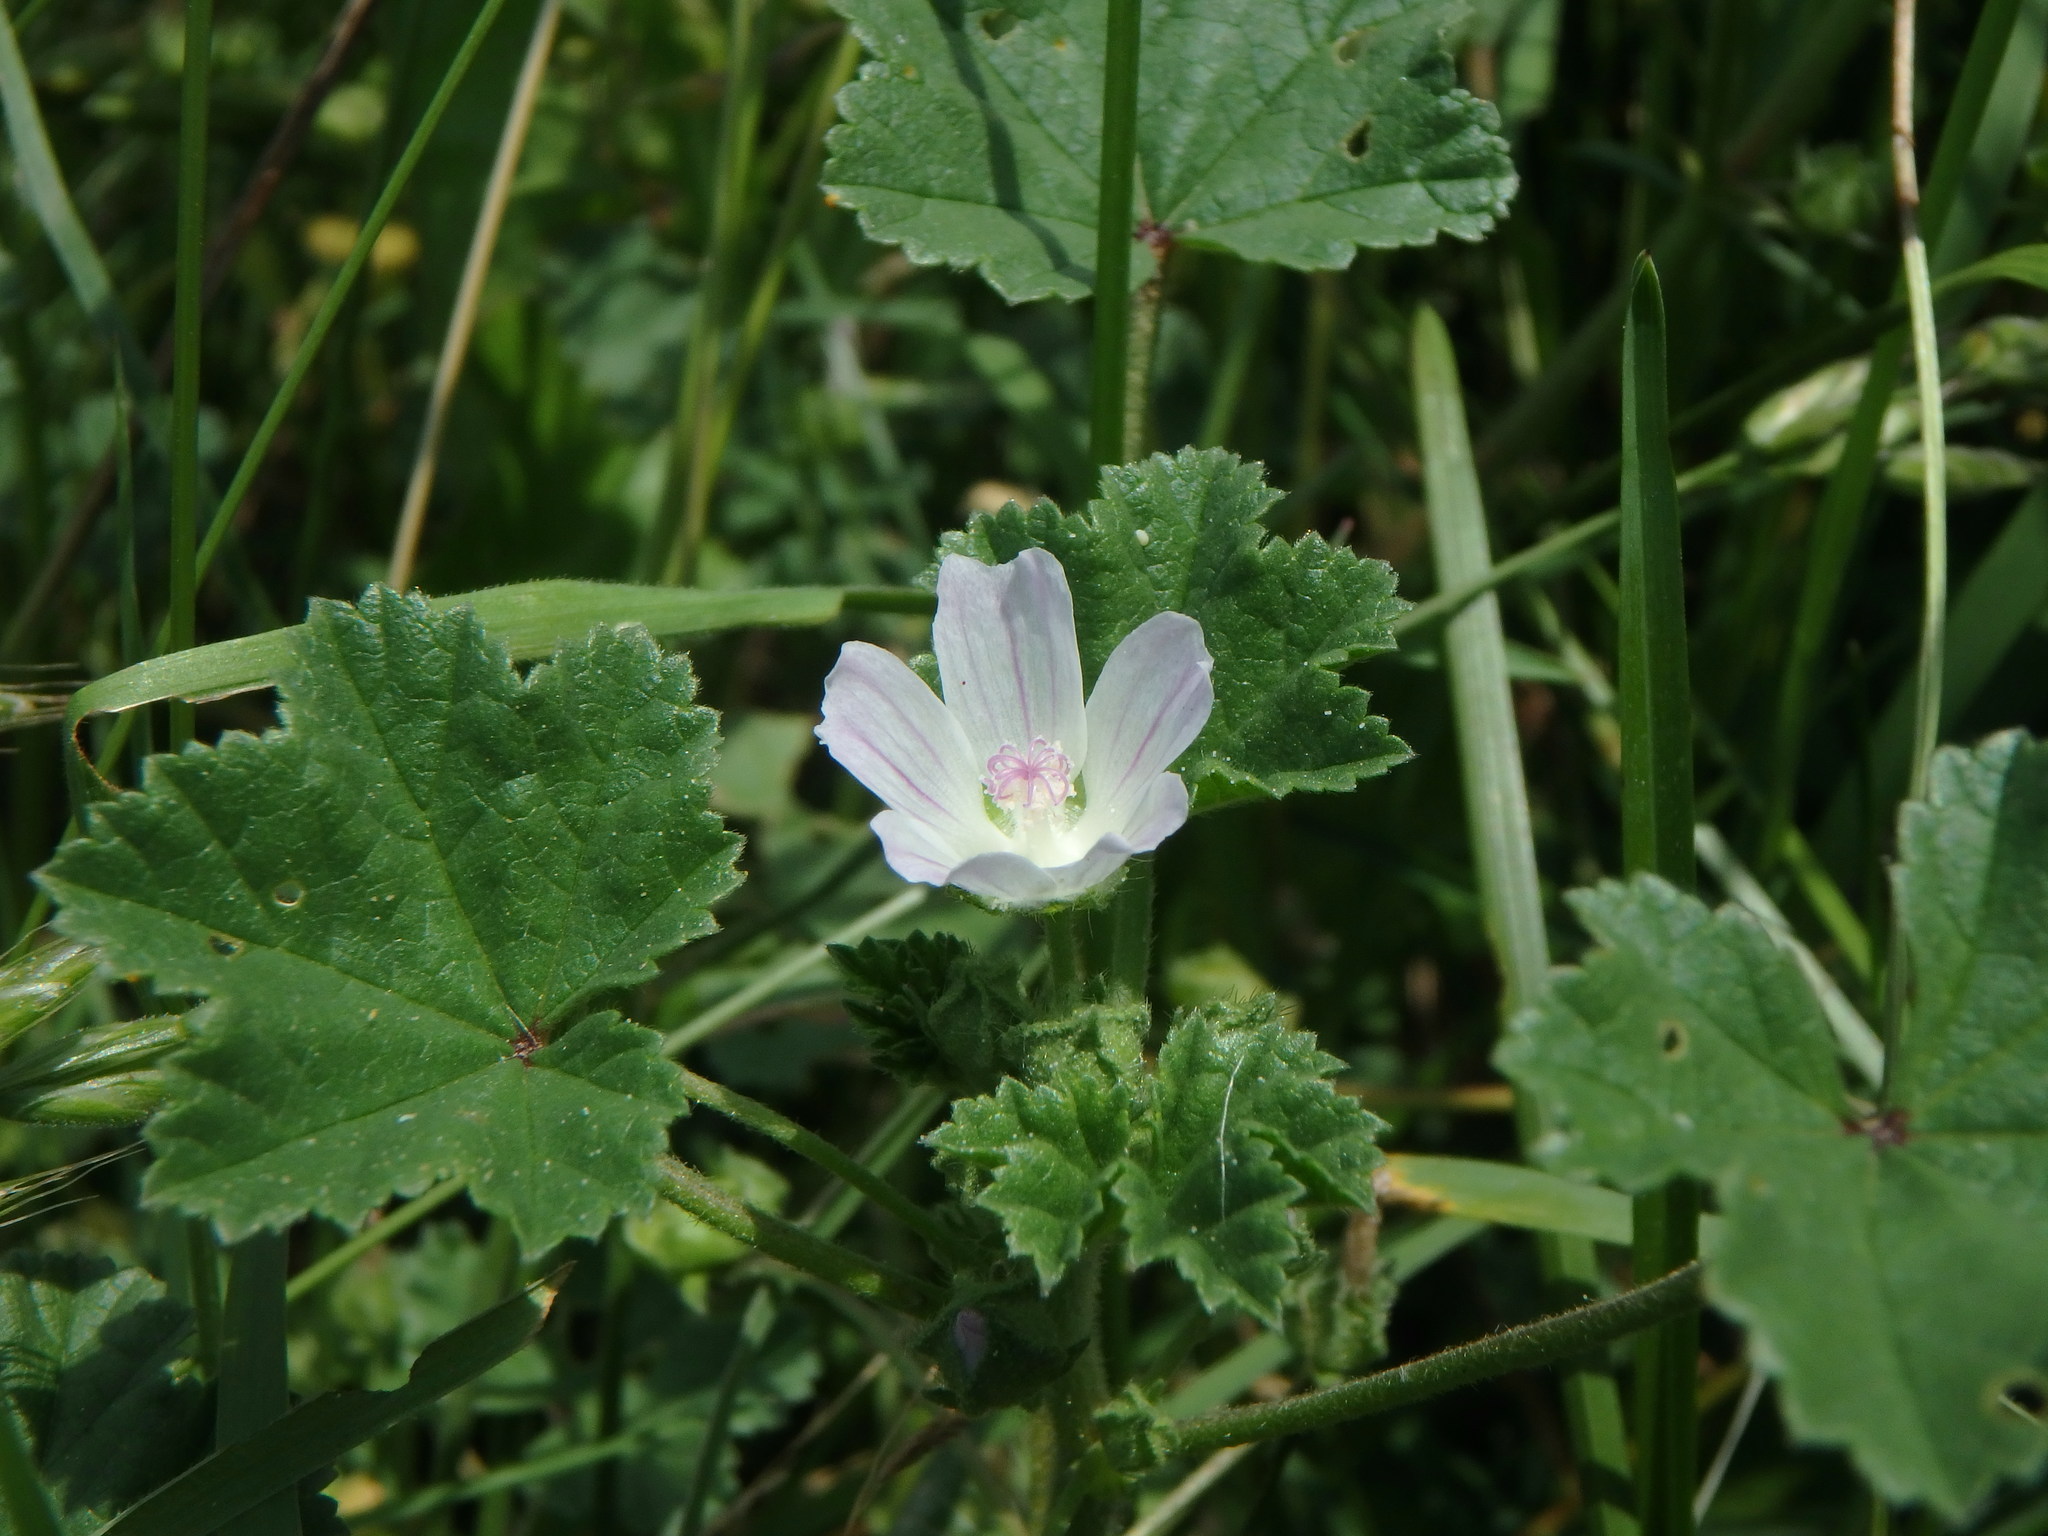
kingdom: Plantae
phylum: Tracheophyta
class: Magnoliopsida
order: Malvales
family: Malvaceae
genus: Malva
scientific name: Malva neglecta
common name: Common mallow
